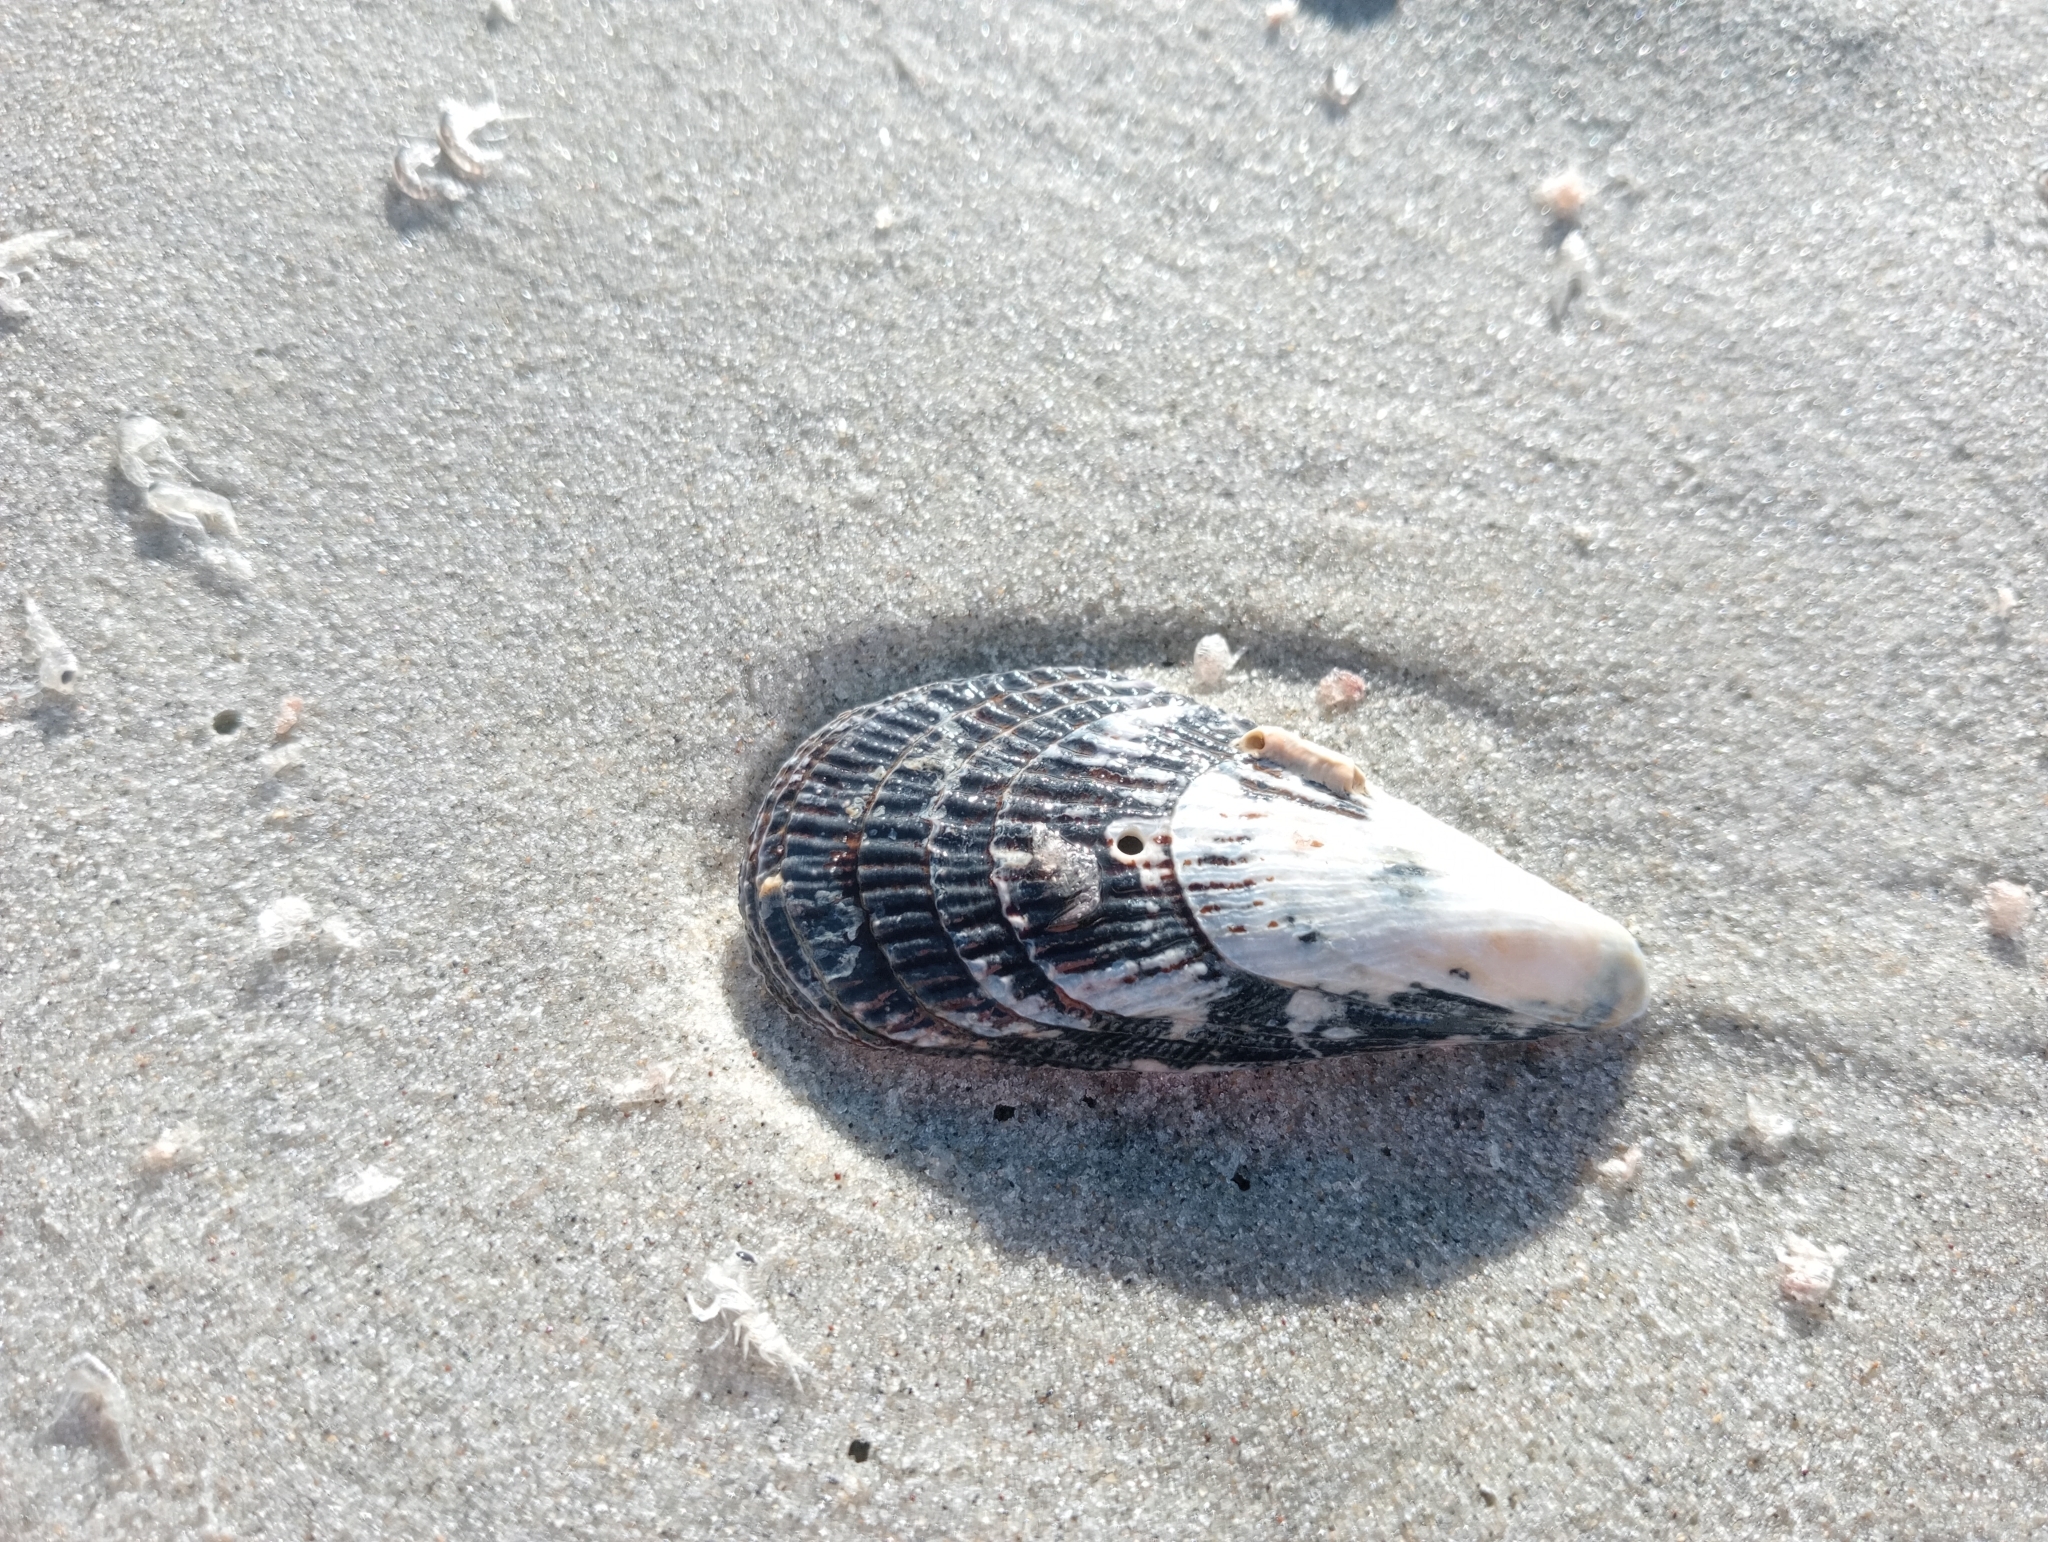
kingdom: Animalia
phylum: Mollusca
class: Bivalvia
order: Mytilida
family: Mytilidae
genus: Aulacomya
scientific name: Aulacomya maoriana
